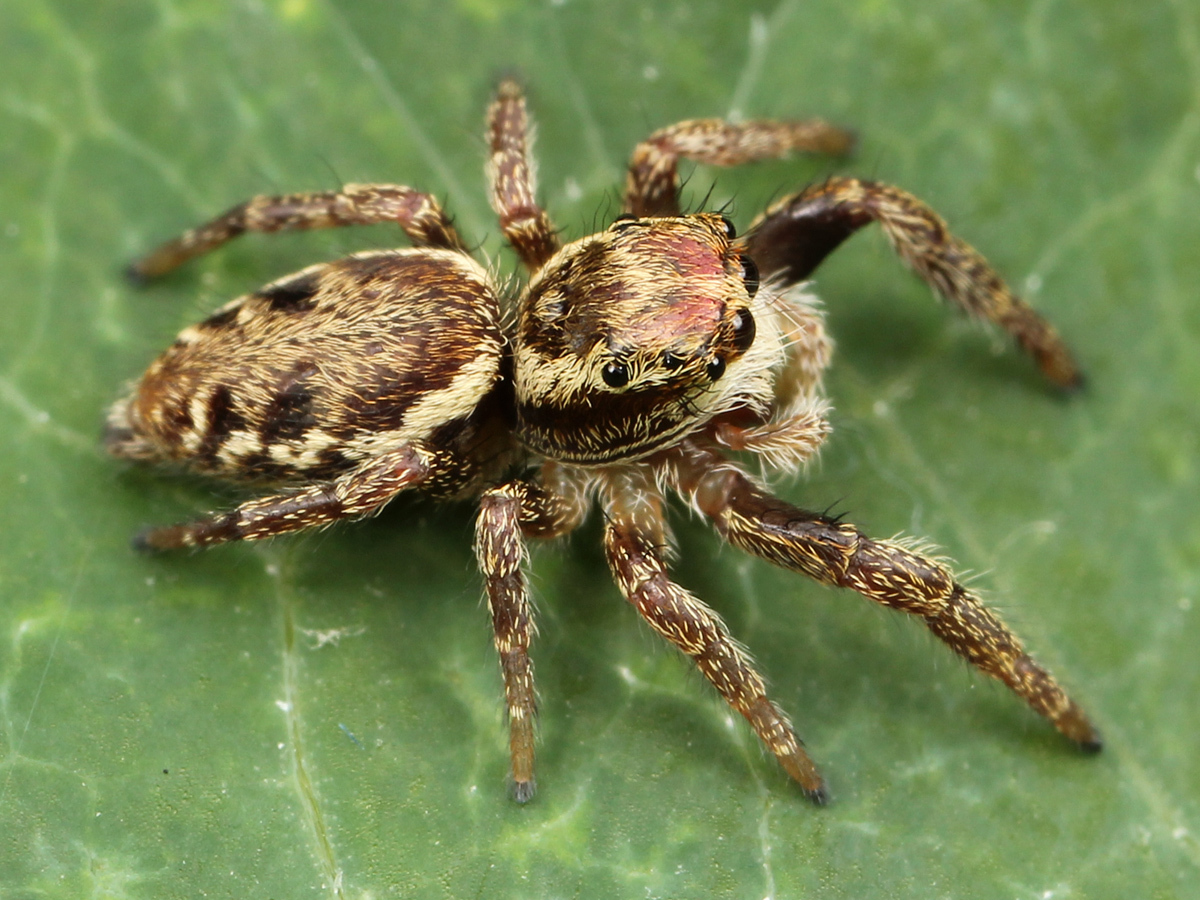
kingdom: Animalia
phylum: Arthropoda
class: Arachnida
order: Araneae
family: Salticidae
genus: Phanias
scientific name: Phanias albeolus
